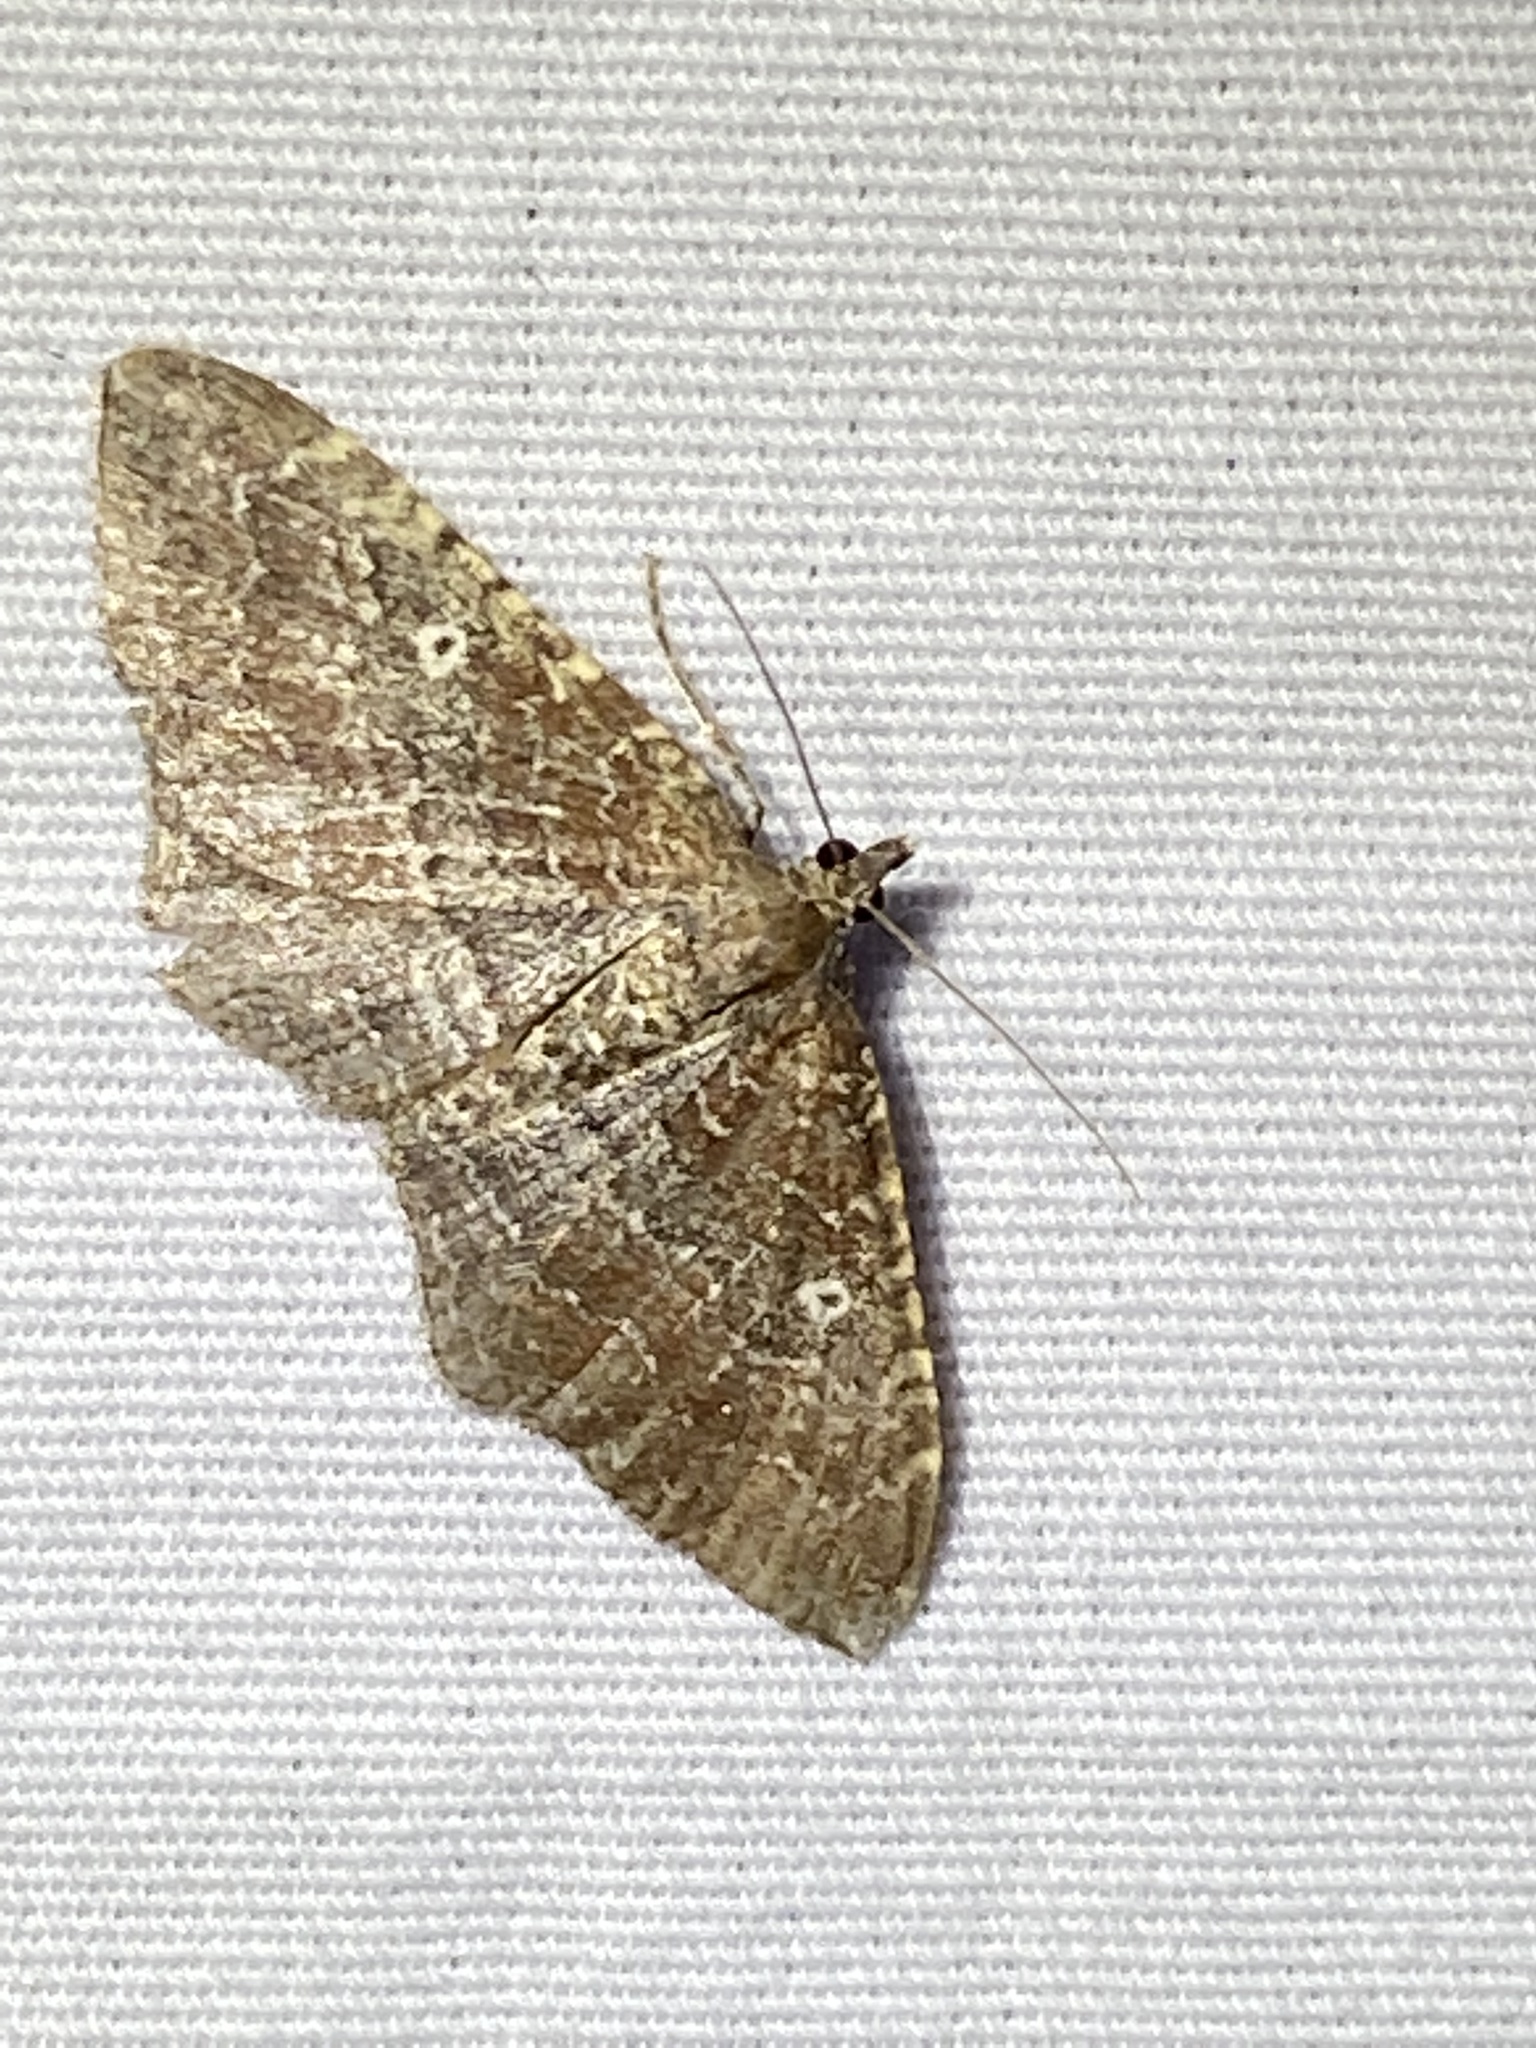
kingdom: Animalia
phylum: Arthropoda
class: Insecta
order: Lepidoptera
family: Geometridae
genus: Orthonama
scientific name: Orthonama obstipata
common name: The gem
